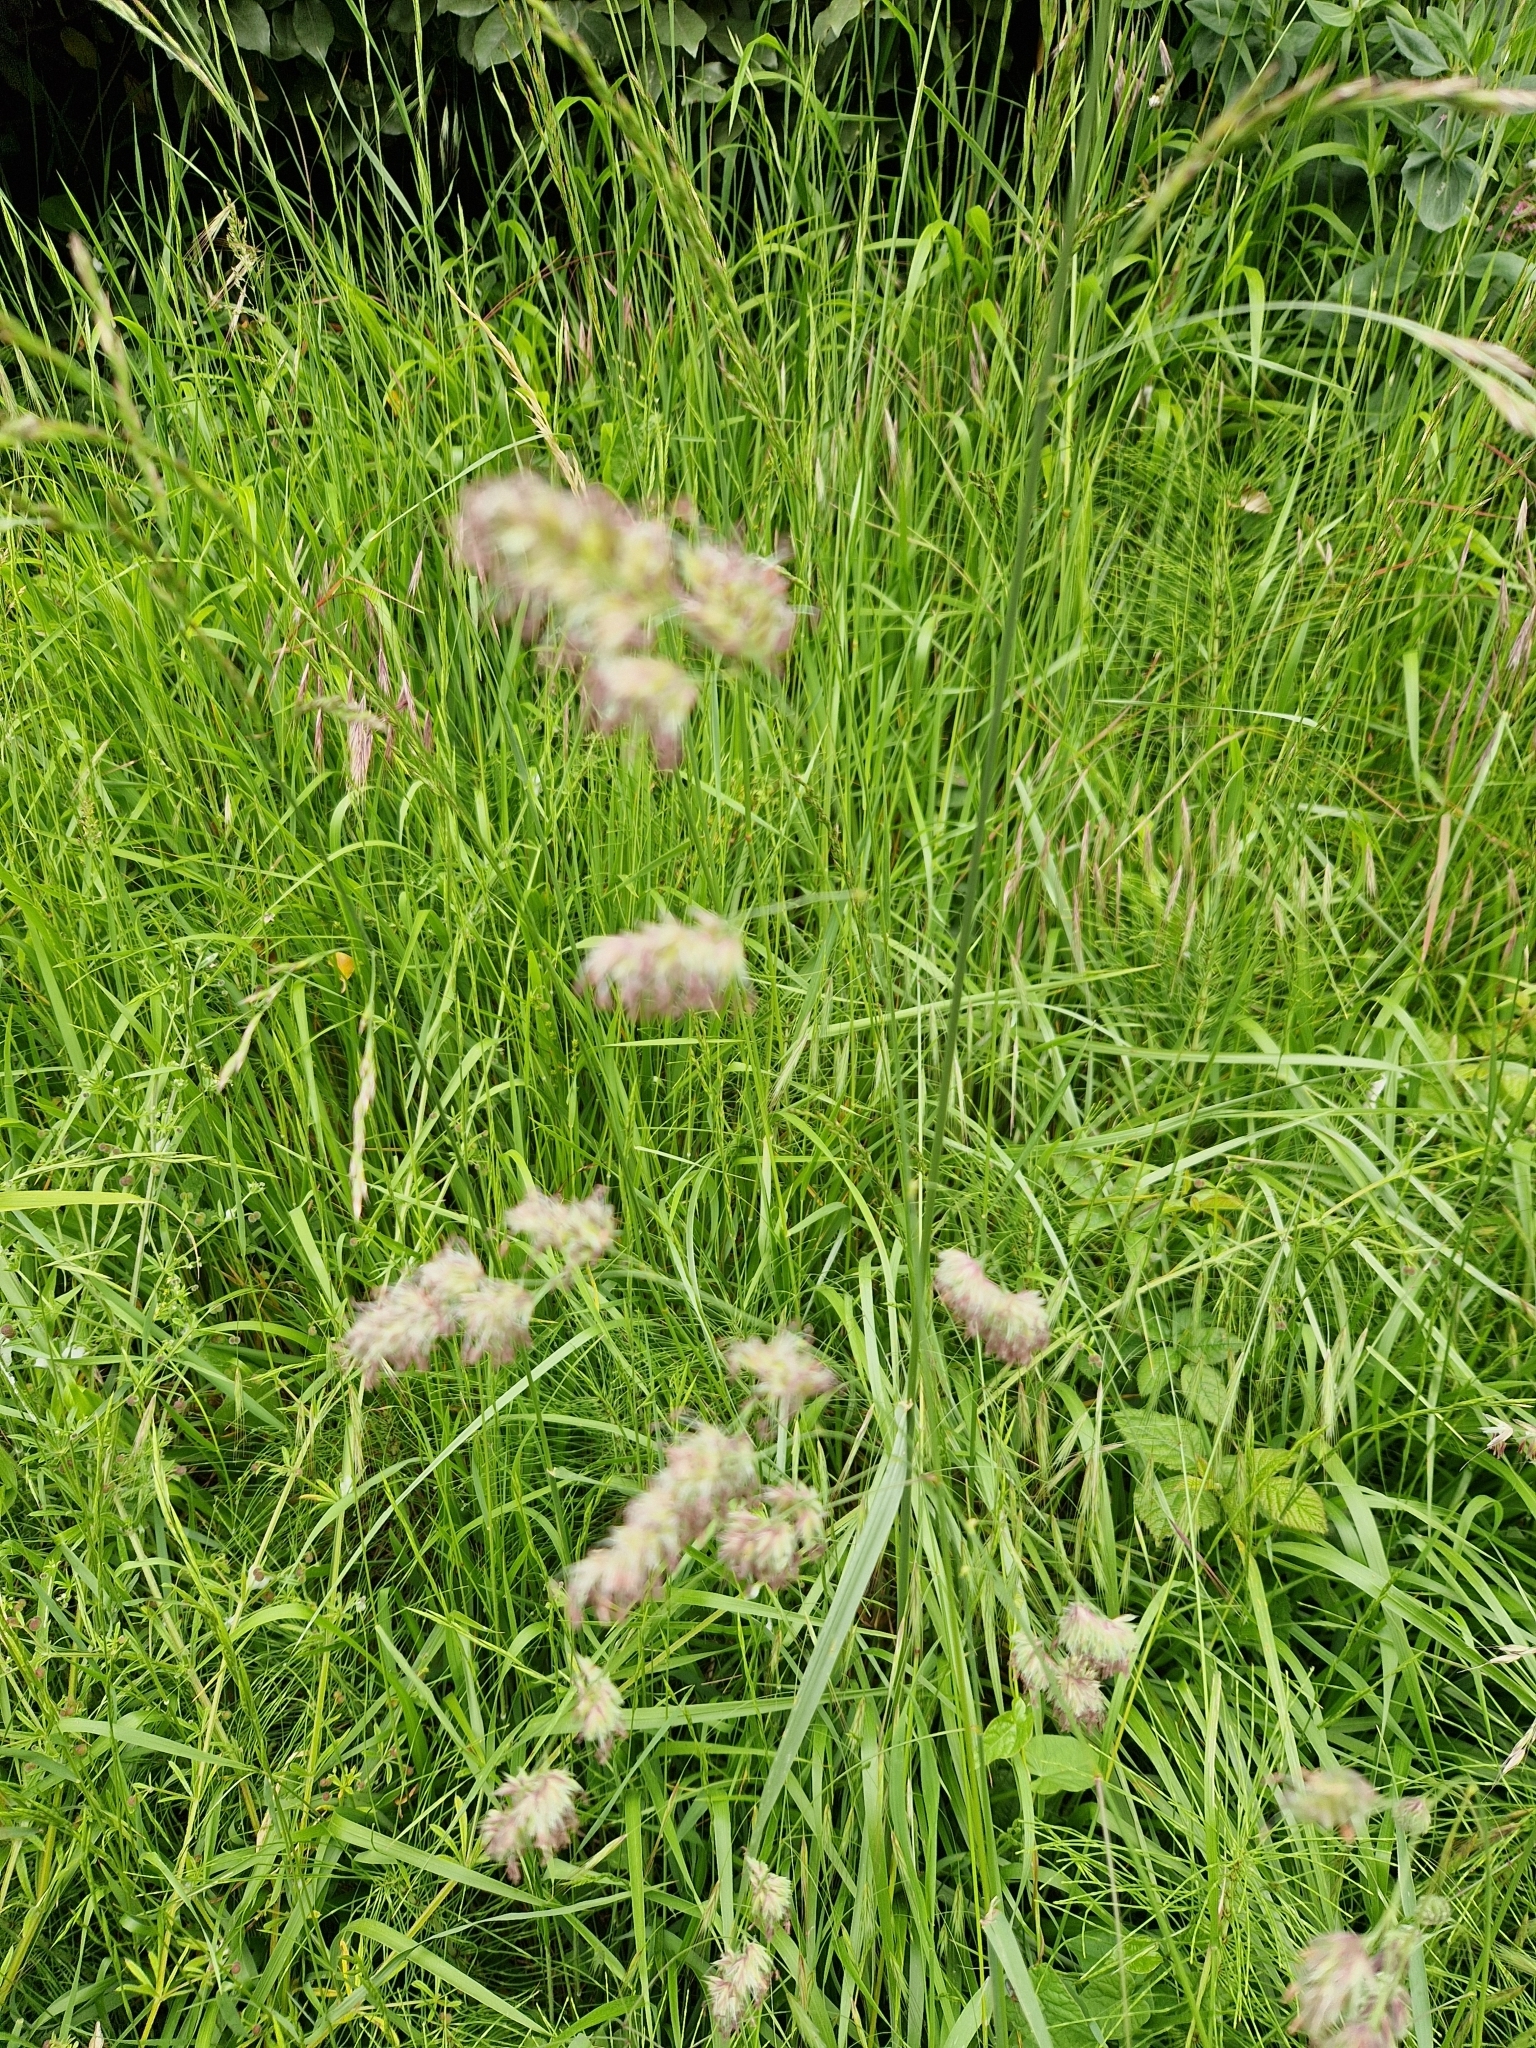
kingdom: Plantae
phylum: Tracheophyta
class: Liliopsida
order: Poales
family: Poaceae
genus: Dactylis
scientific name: Dactylis glomerata
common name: Orchardgrass
